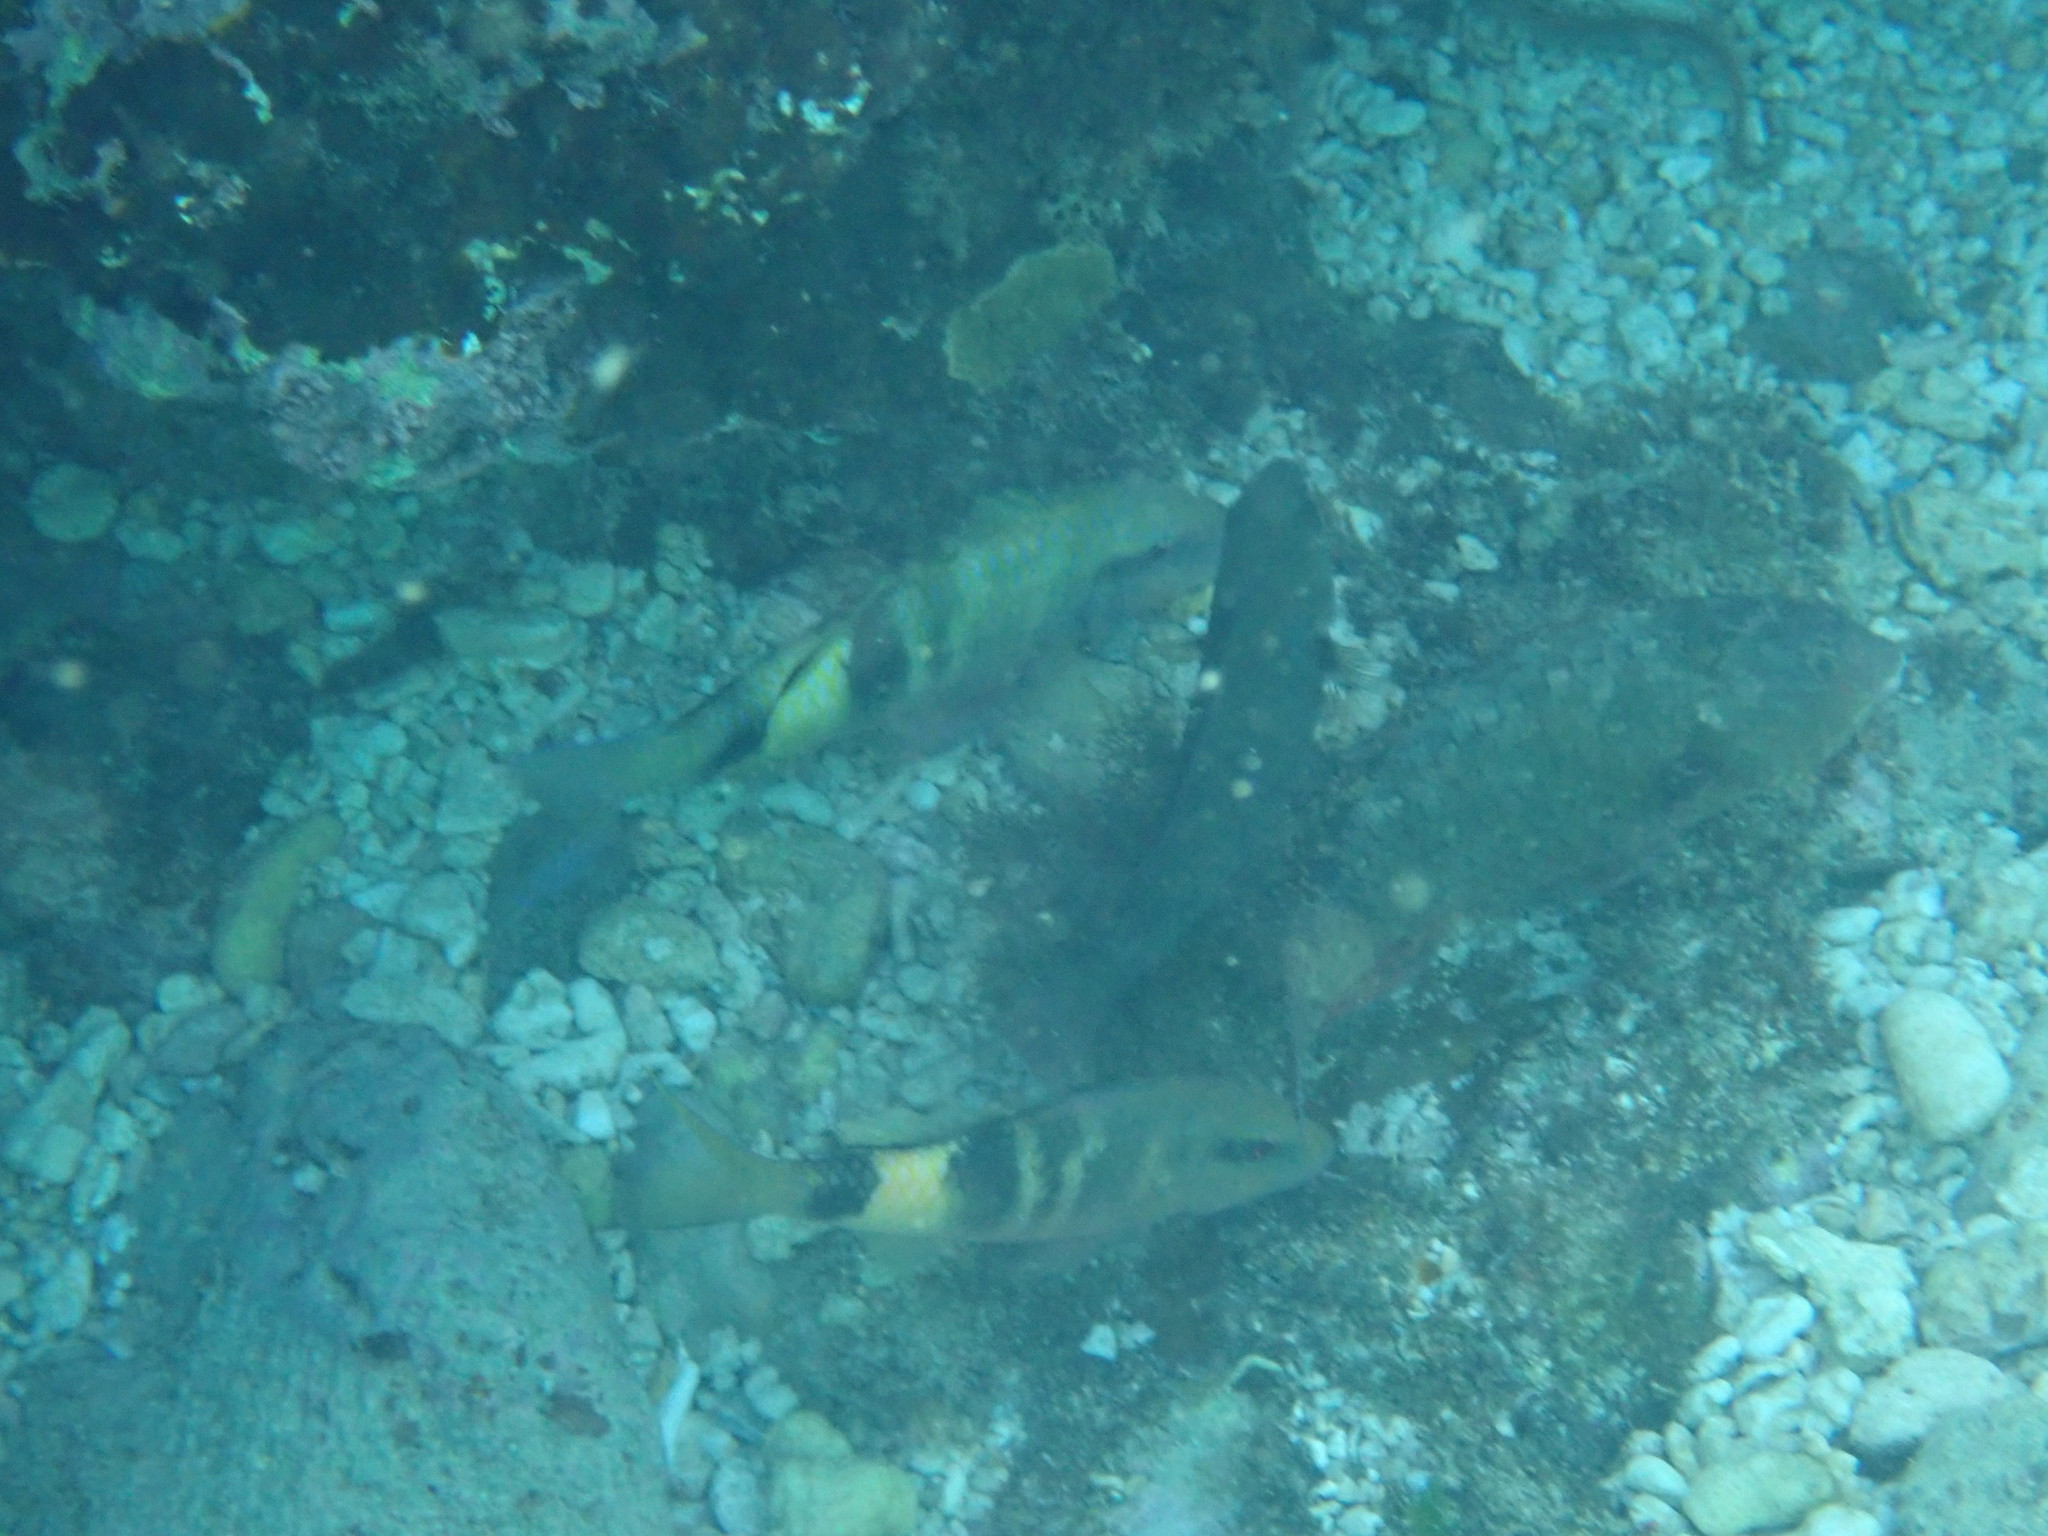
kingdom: Animalia
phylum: Chordata
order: Perciformes
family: Mullidae
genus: Parupeneus
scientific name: Parupeneus multifasciatus
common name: Manybar goatfish
